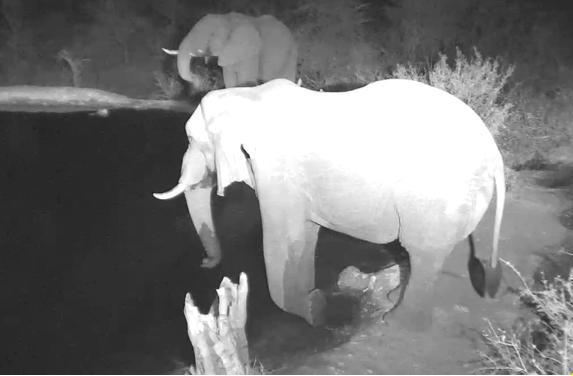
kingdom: Animalia
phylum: Chordata
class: Mammalia
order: Proboscidea
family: Elephantidae
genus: Loxodonta
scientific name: Loxodonta africana
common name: African elephant
